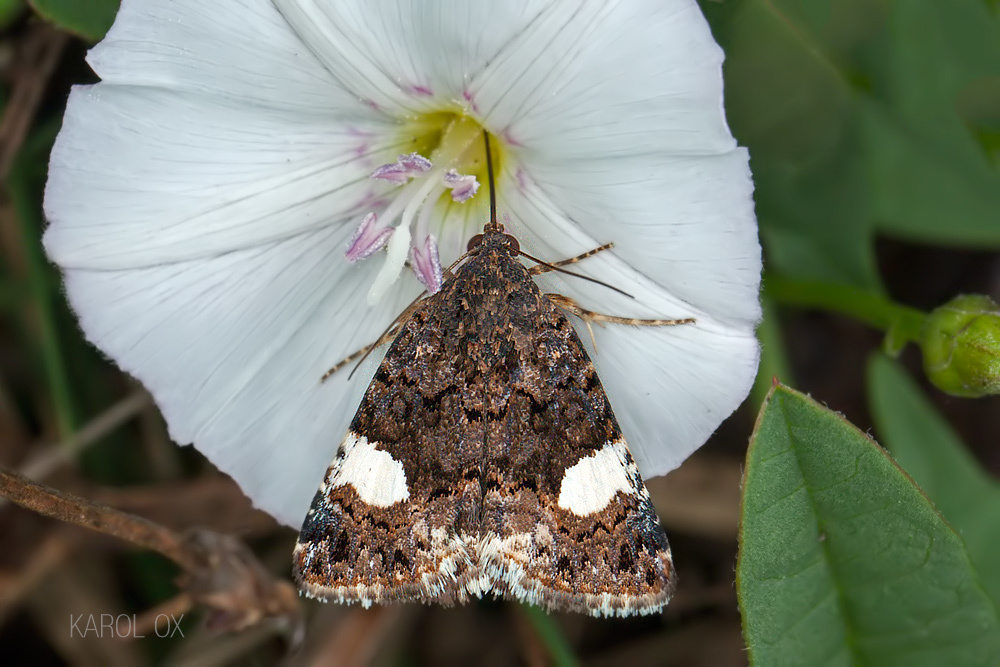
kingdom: Animalia
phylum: Arthropoda
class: Insecta
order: Lepidoptera
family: Erebidae
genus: Tyta
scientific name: Tyta luctuosa
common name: Four-spotted
